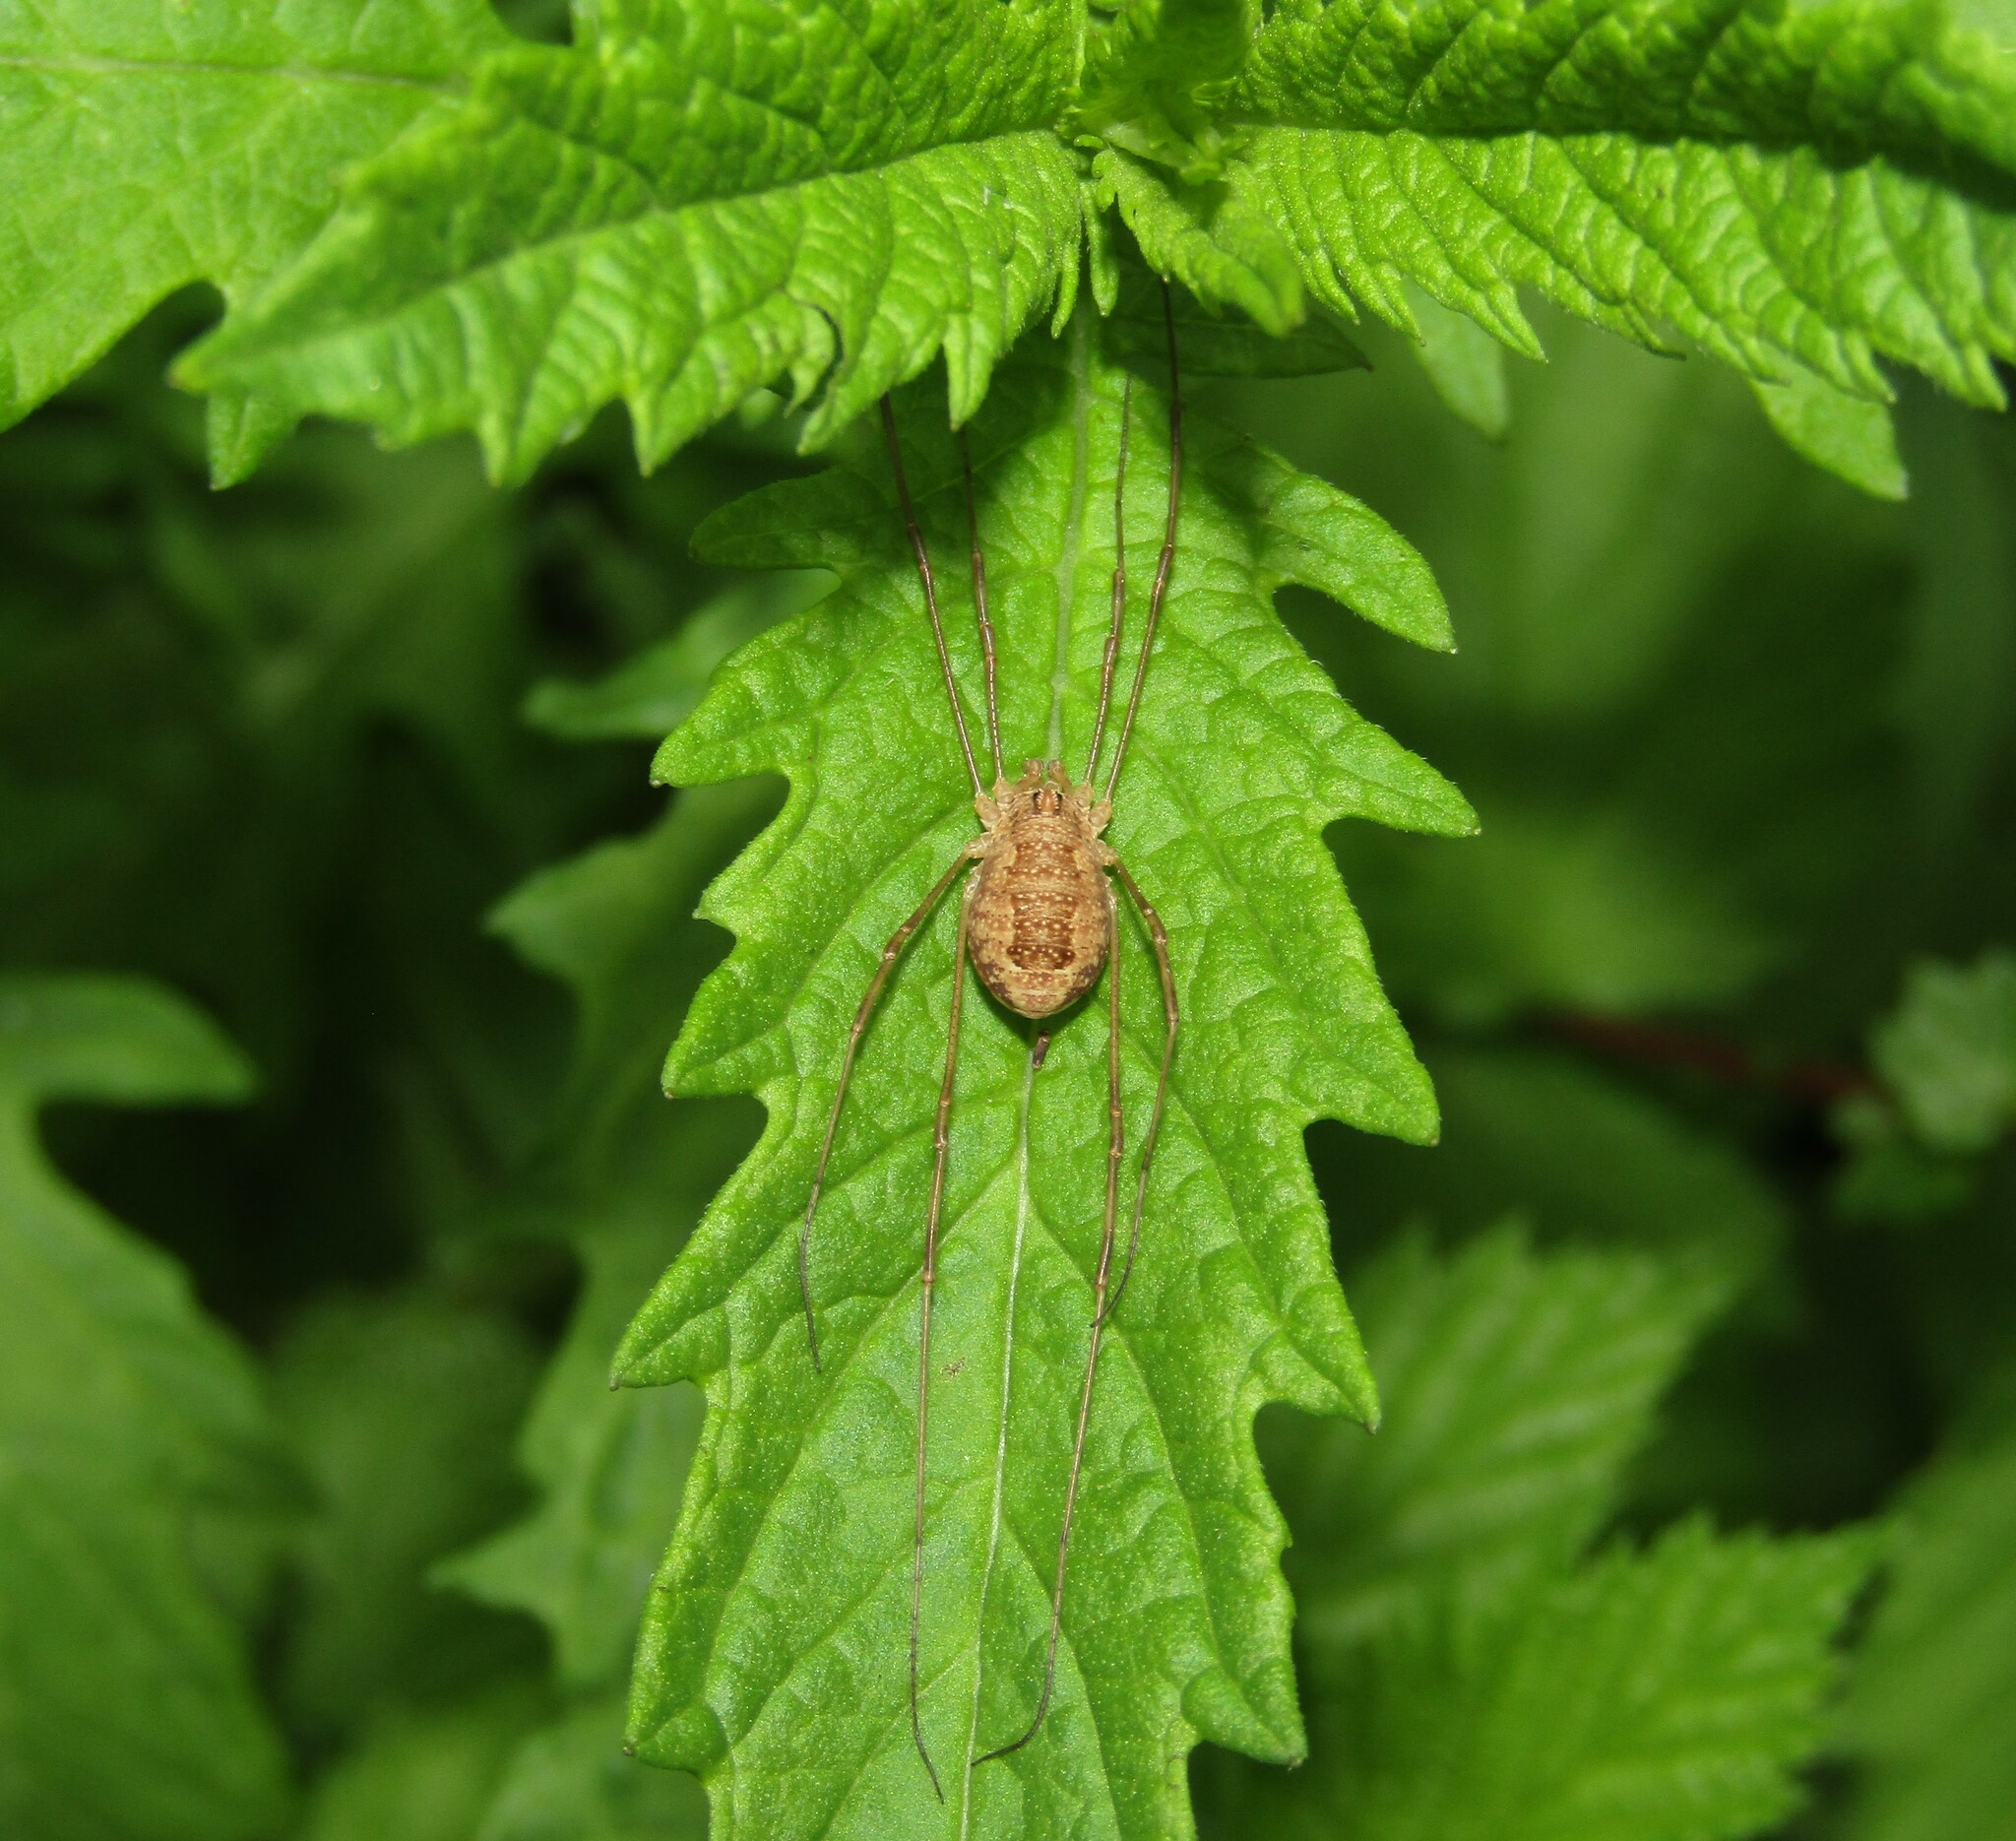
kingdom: Animalia
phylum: Arthropoda
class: Arachnida
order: Opiliones
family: Phalangiidae
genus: Rilaena
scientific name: Rilaena triangularis
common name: Spring harvestman
